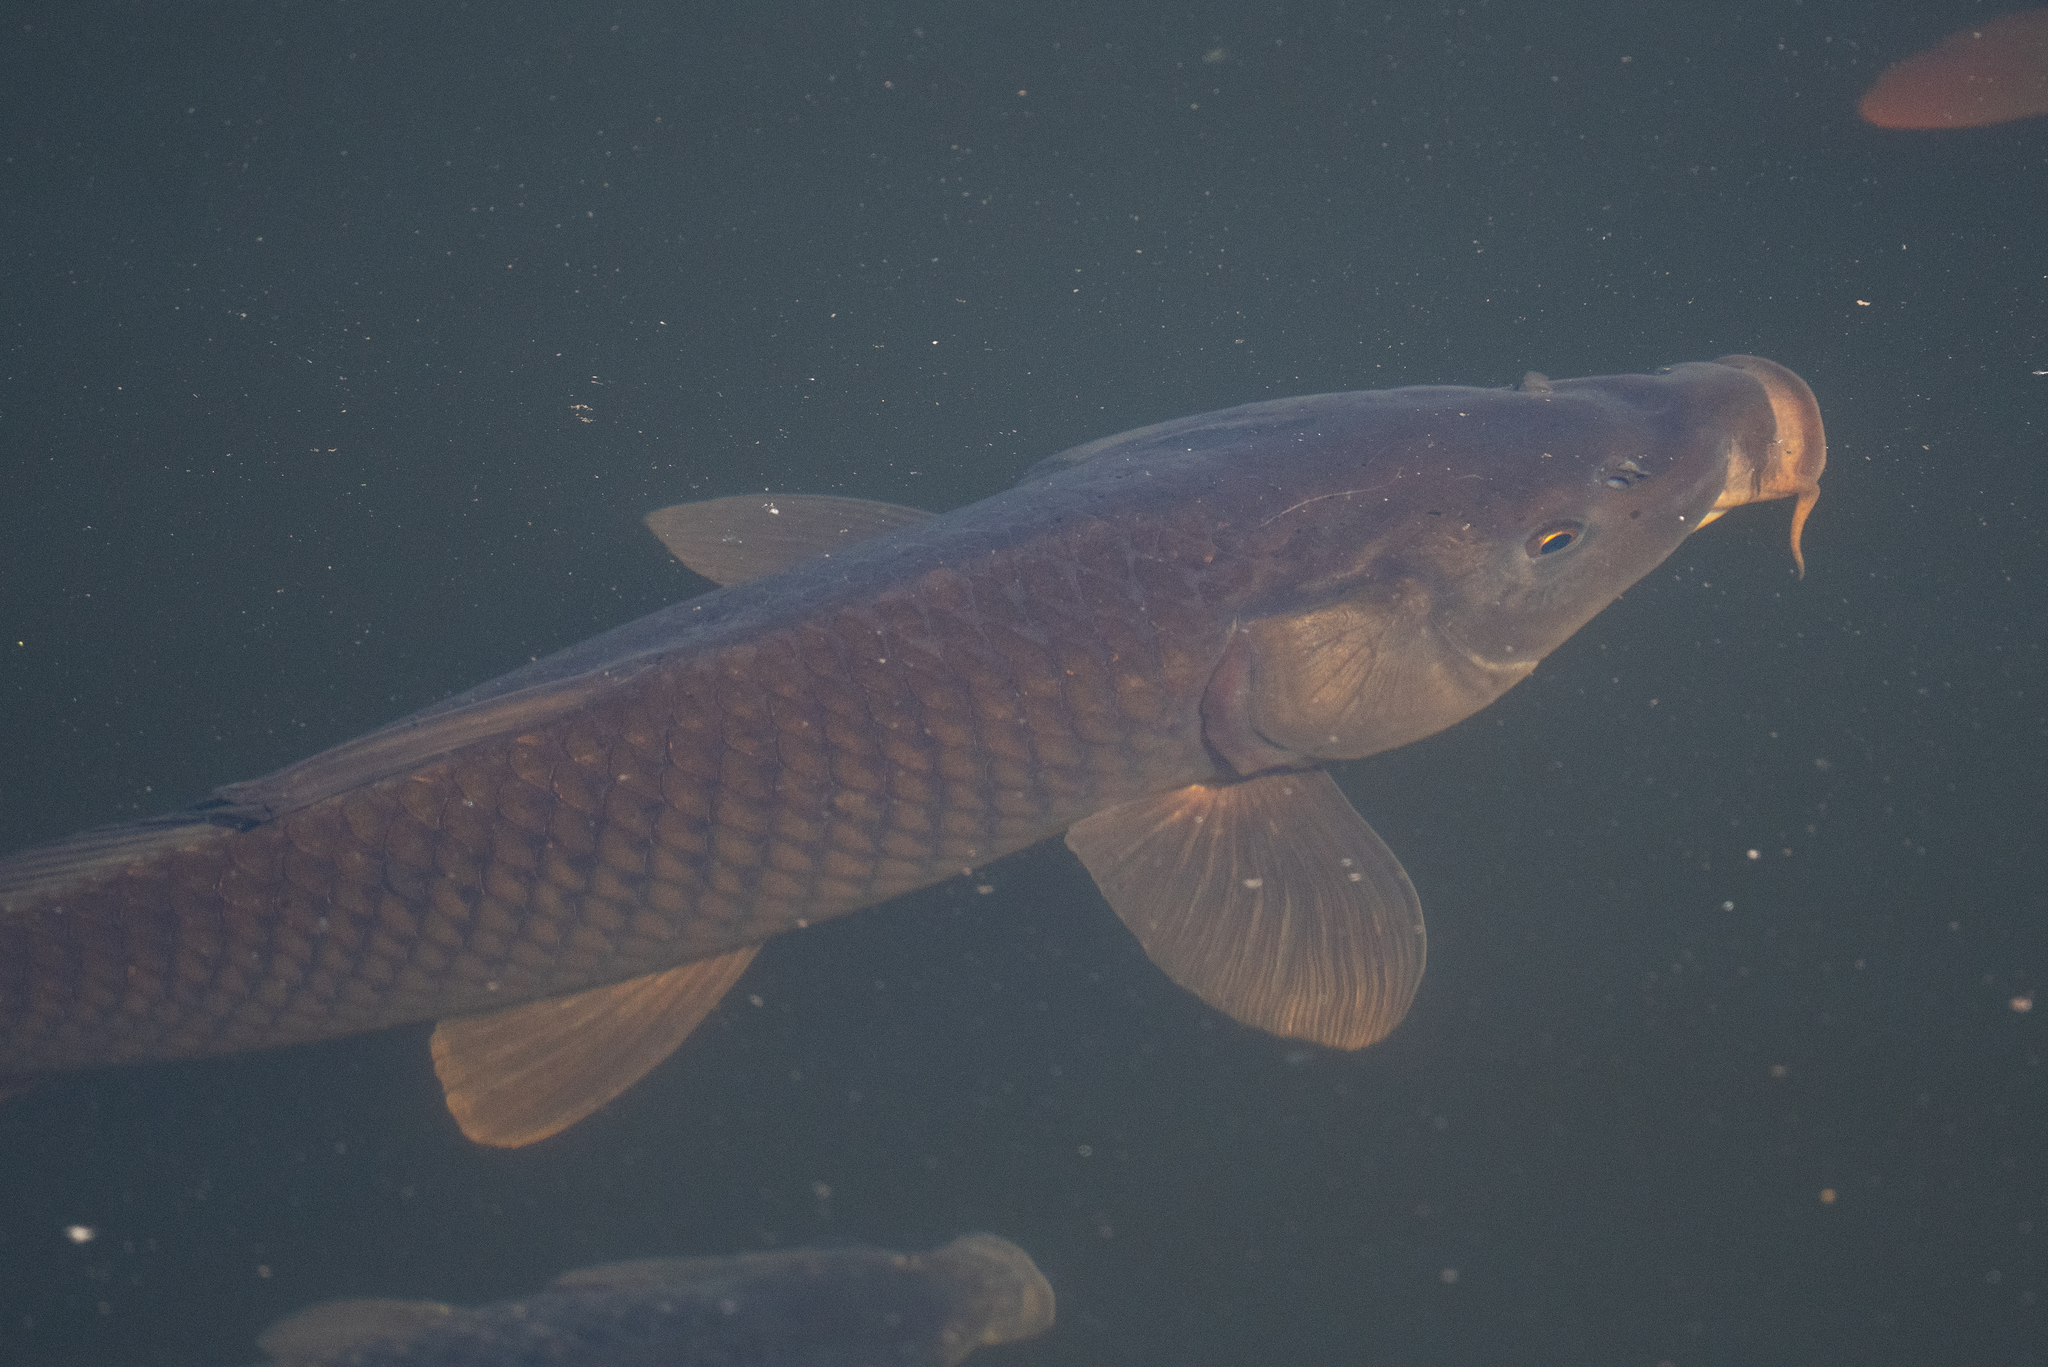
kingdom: Animalia
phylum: Chordata
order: Cypriniformes
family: Cyprinidae
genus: Cyprinus
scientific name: Cyprinus carpio
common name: Common carp
